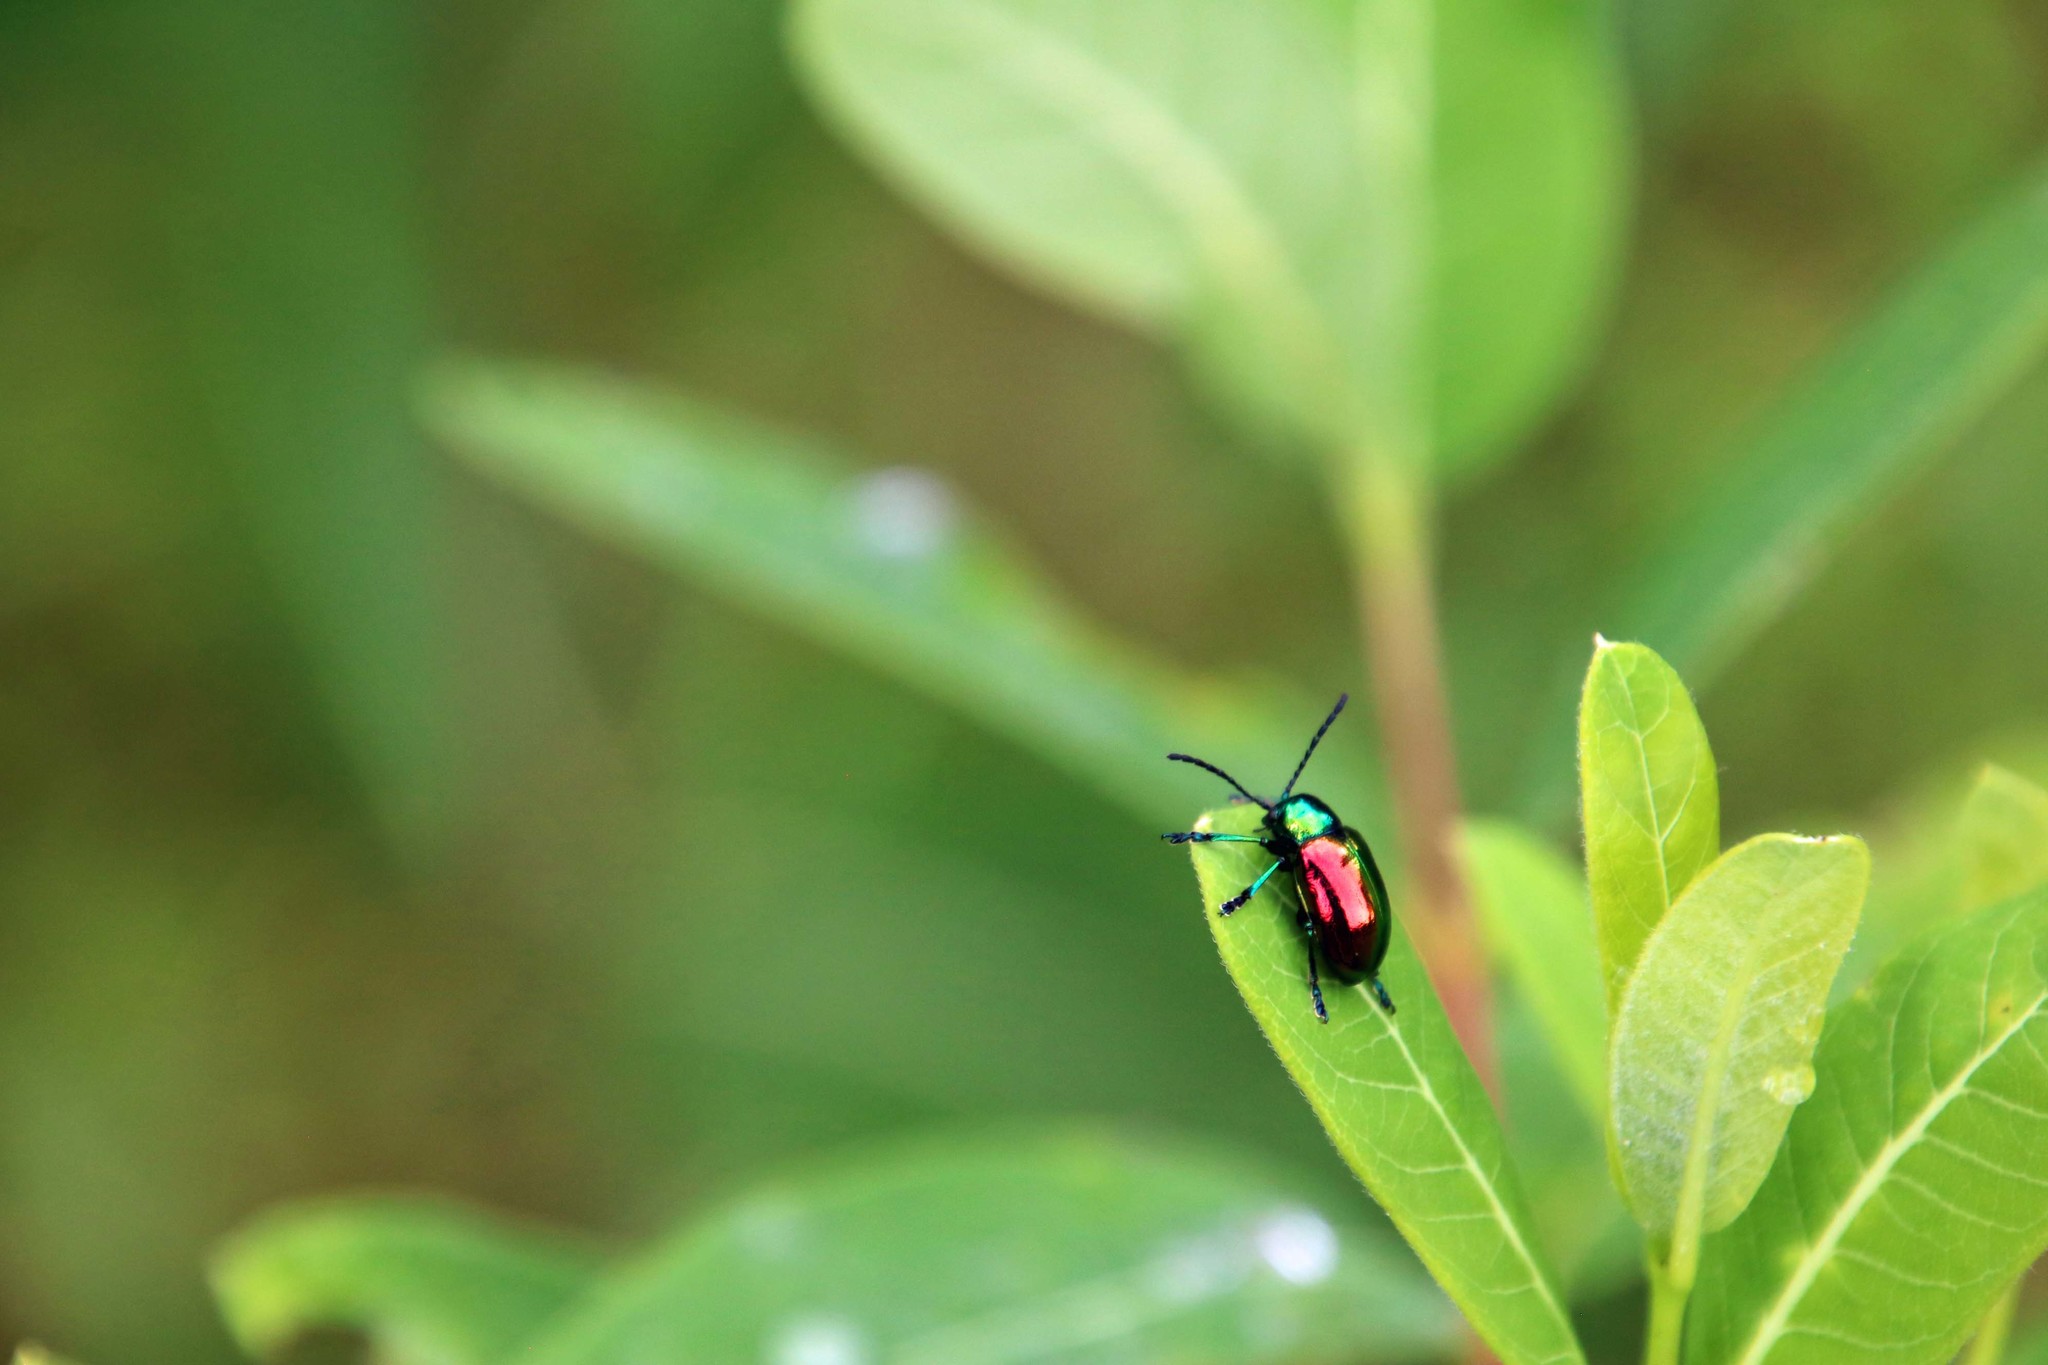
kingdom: Animalia
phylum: Arthropoda
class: Insecta
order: Coleoptera
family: Chrysomelidae
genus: Chrysochus
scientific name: Chrysochus auratus
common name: Dogbane leaf beetle
